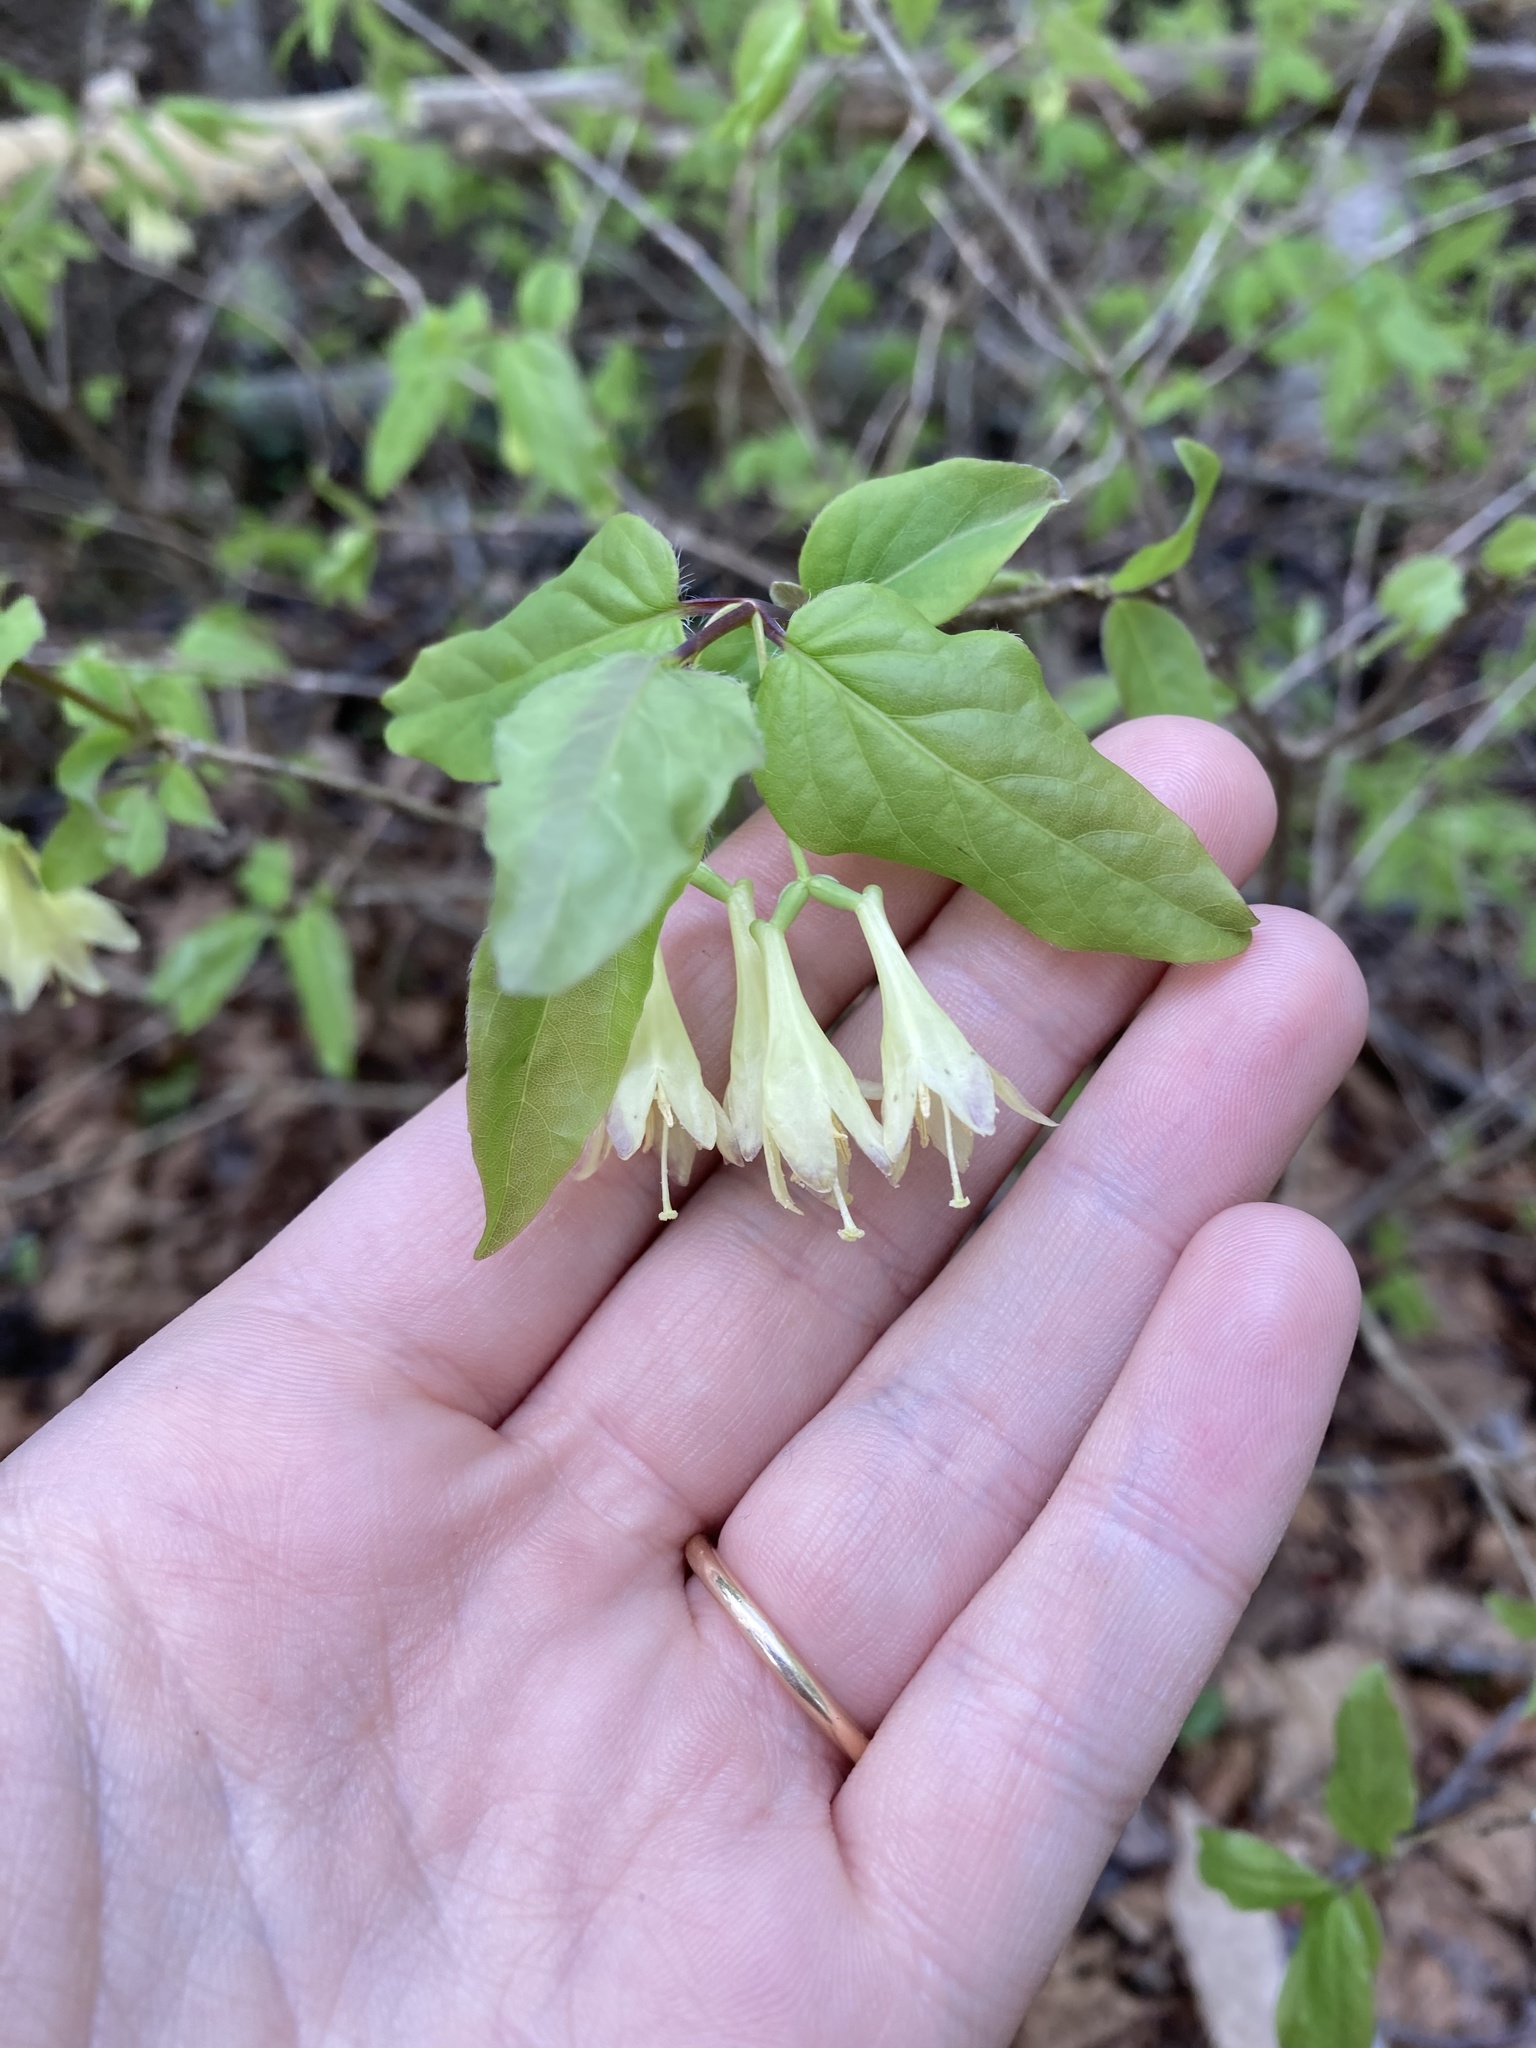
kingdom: Plantae
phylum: Tracheophyta
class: Magnoliopsida
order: Dipsacales
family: Caprifoliaceae
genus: Lonicera
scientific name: Lonicera canadensis
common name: American fly-honeysuckle
